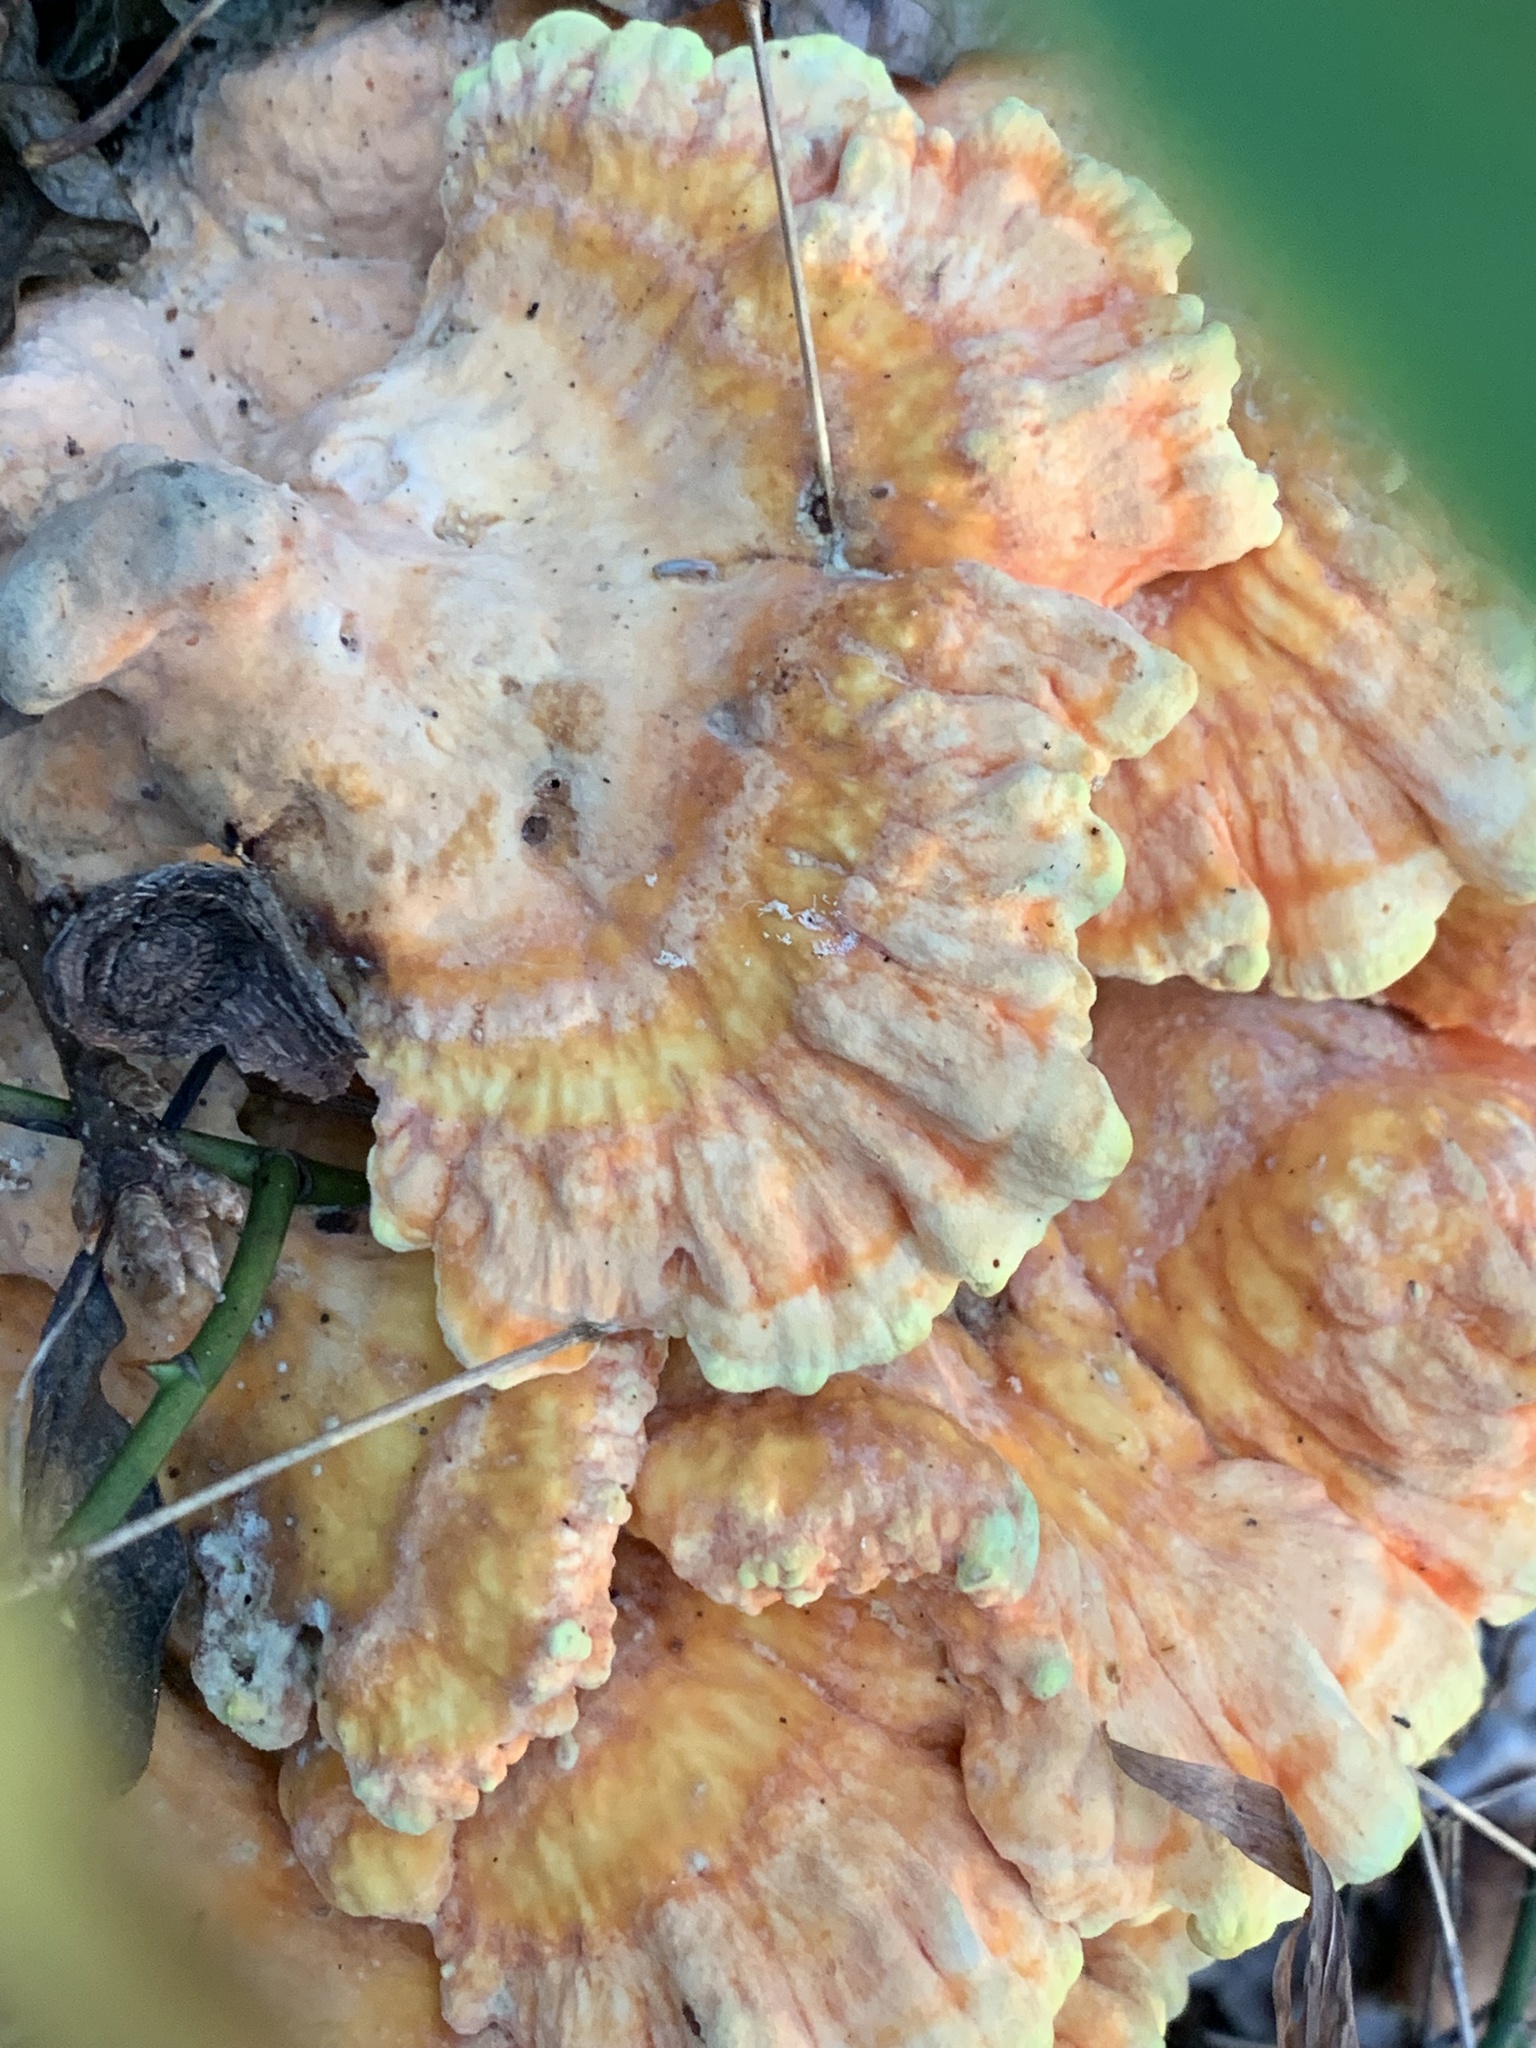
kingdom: Fungi
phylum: Basidiomycota
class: Agaricomycetes
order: Polyporales
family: Laetiporaceae
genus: Laetiporus
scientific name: Laetiporus sulphureus
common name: Chicken of the woods
